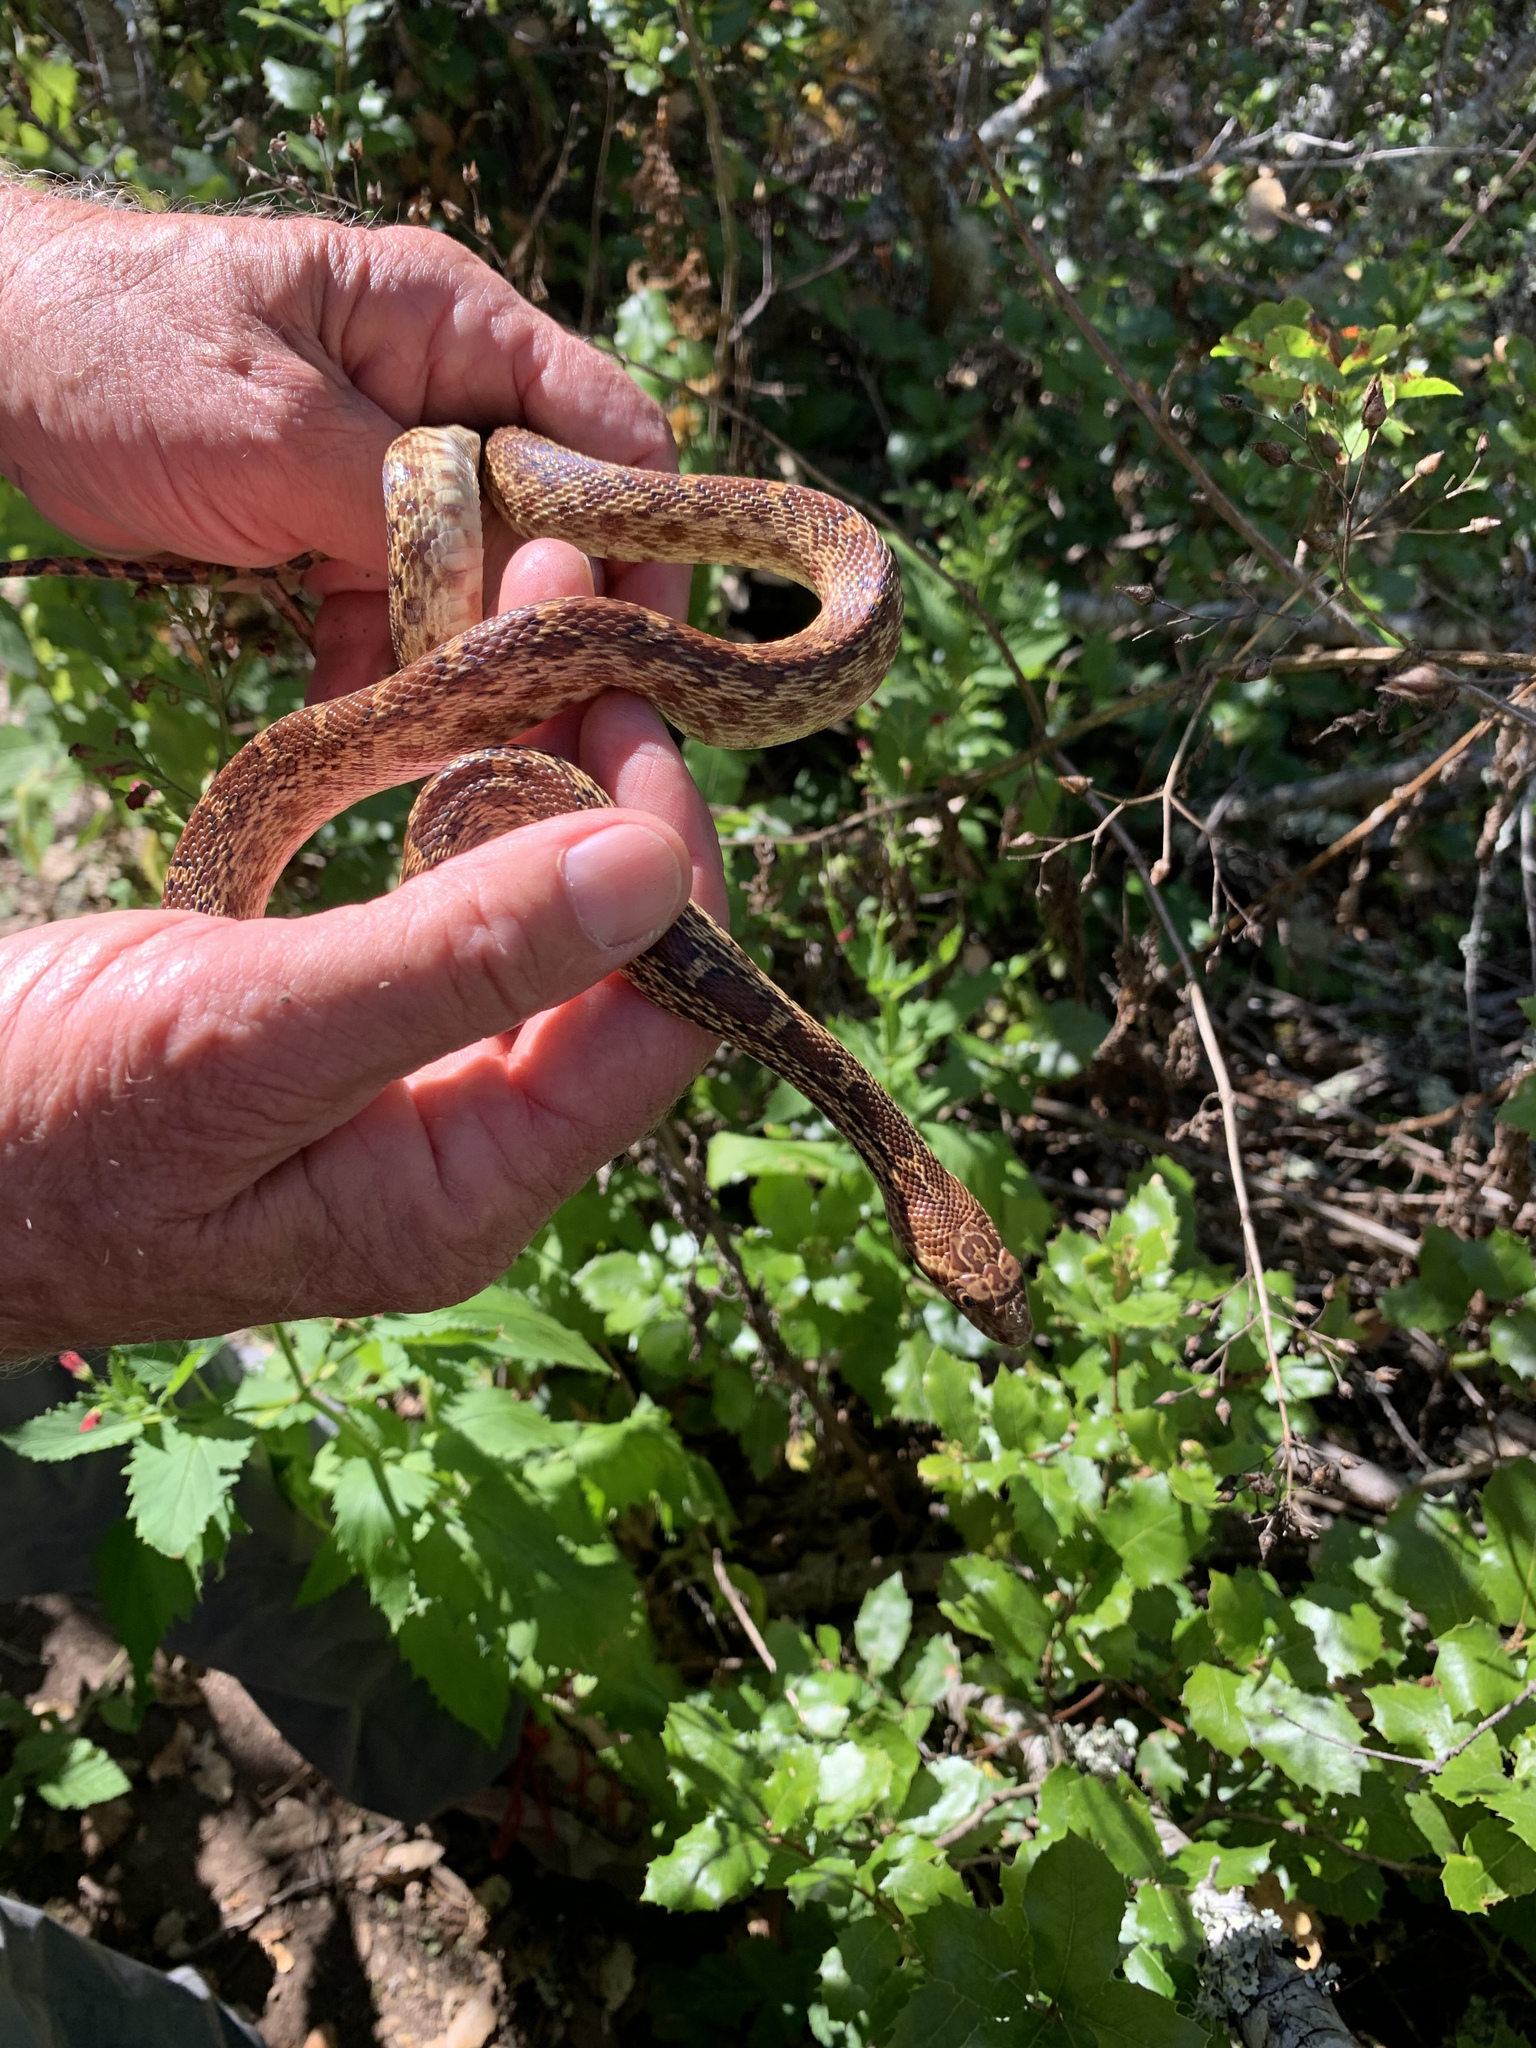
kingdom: Animalia
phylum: Chordata
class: Squamata
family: Colubridae
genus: Pituophis
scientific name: Pituophis catenifer
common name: Gopher snake
